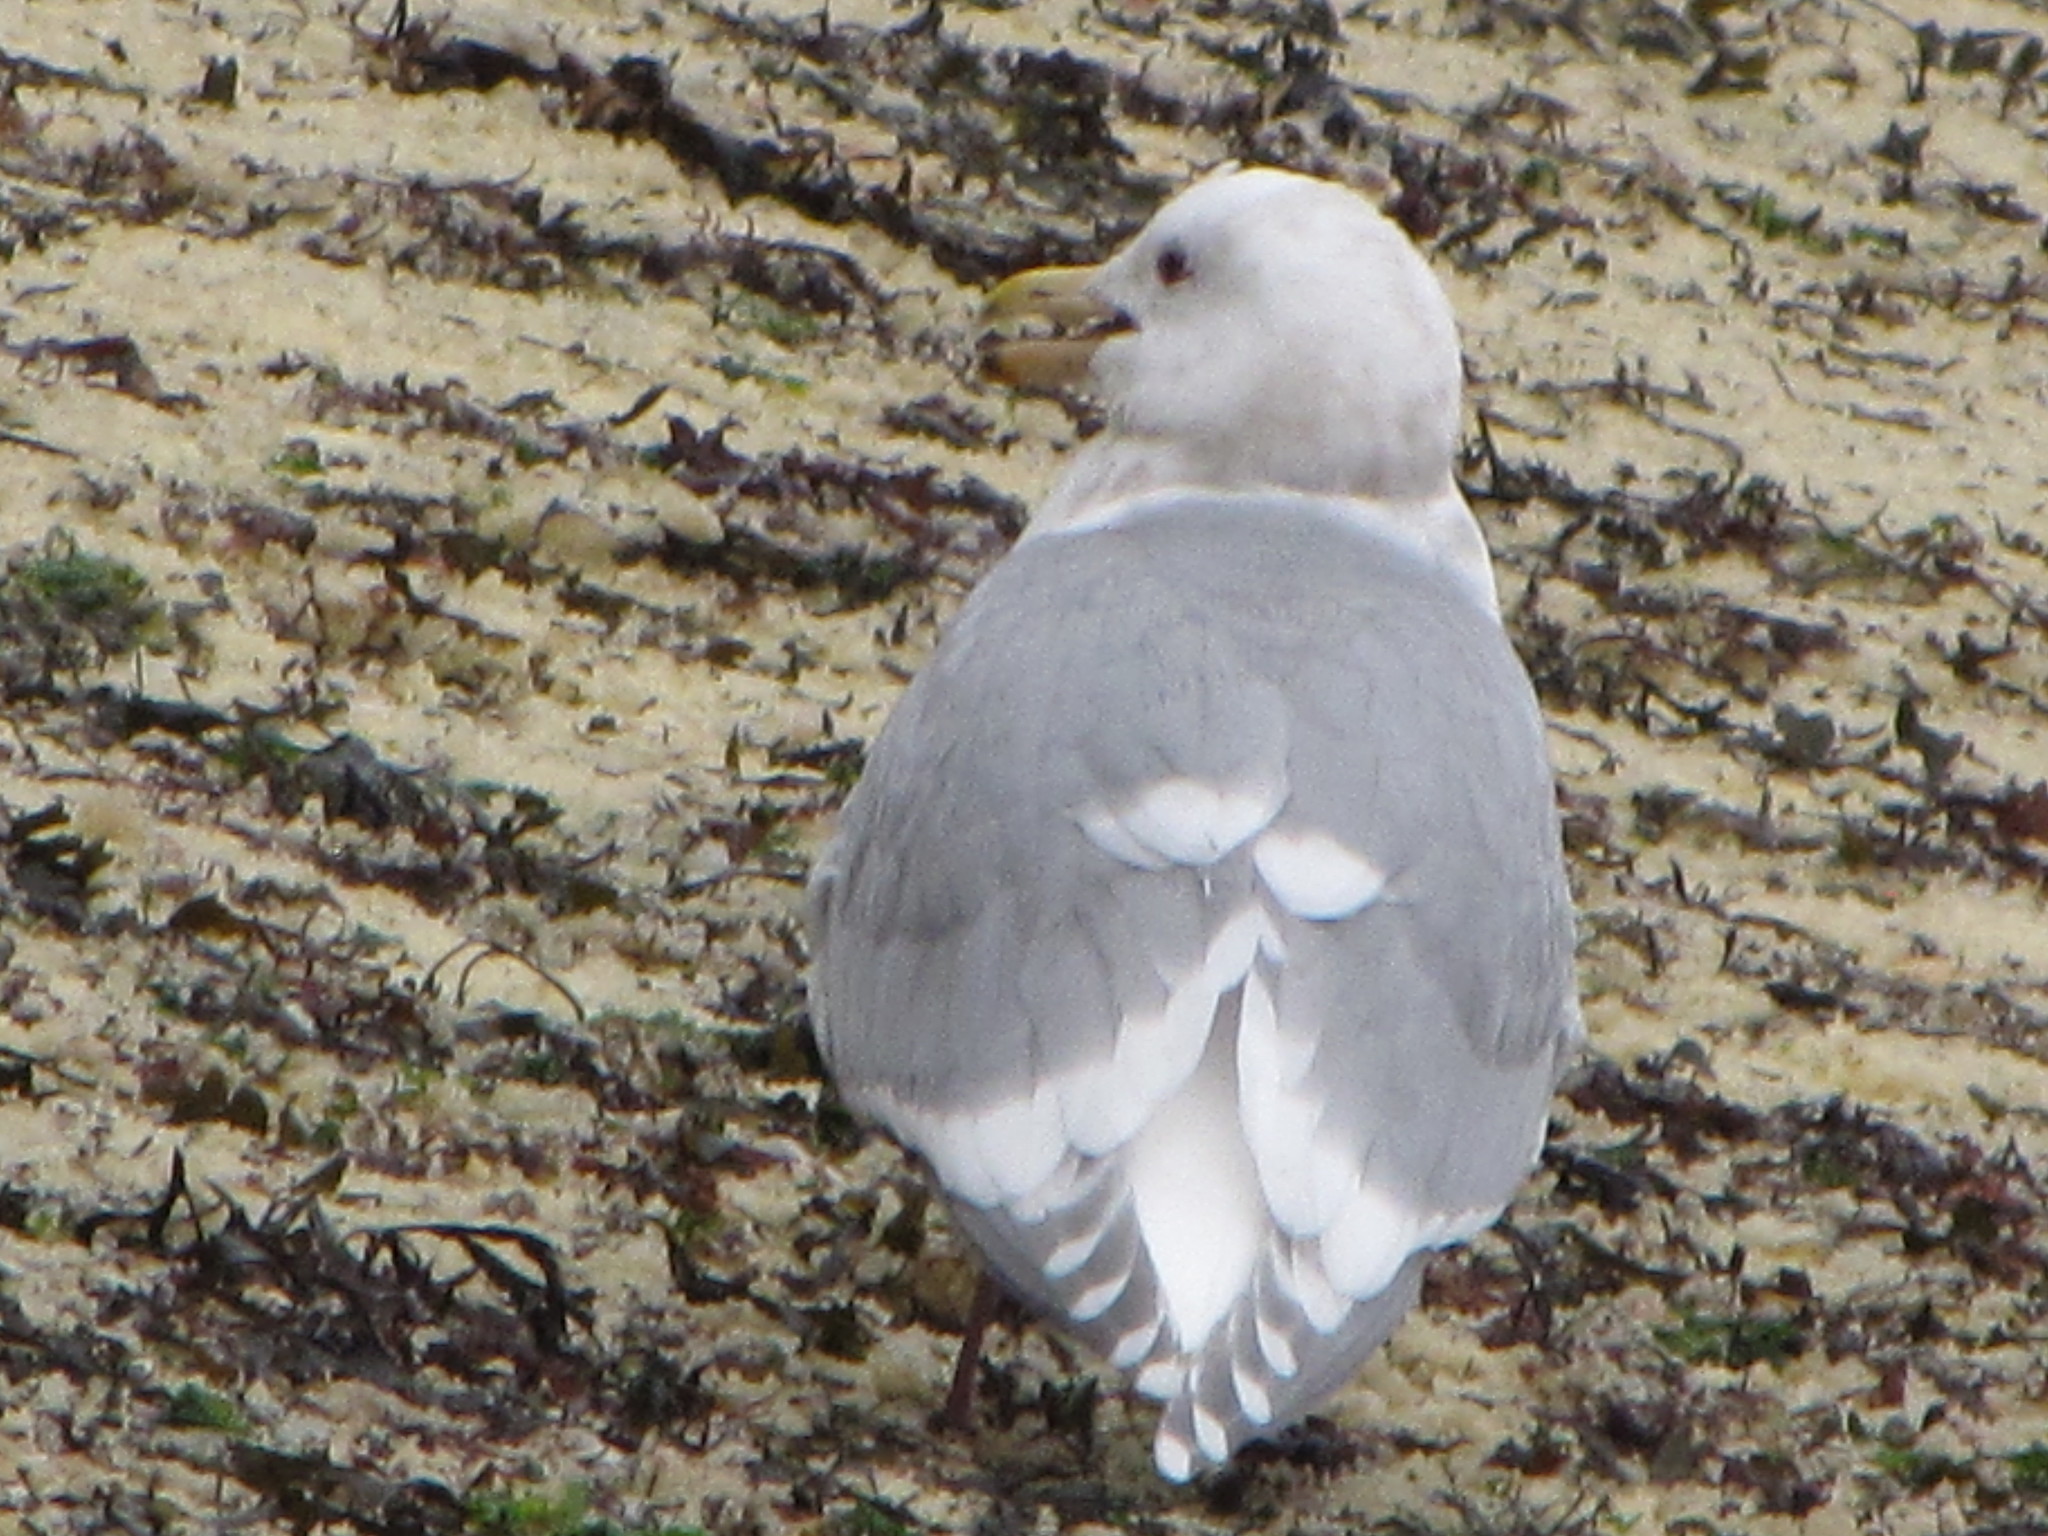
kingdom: Animalia
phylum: Chordata
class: Aves
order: Charadriiformes
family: Laridae
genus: Larus
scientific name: Larus glaucescens
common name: Glaucous-winged gull
